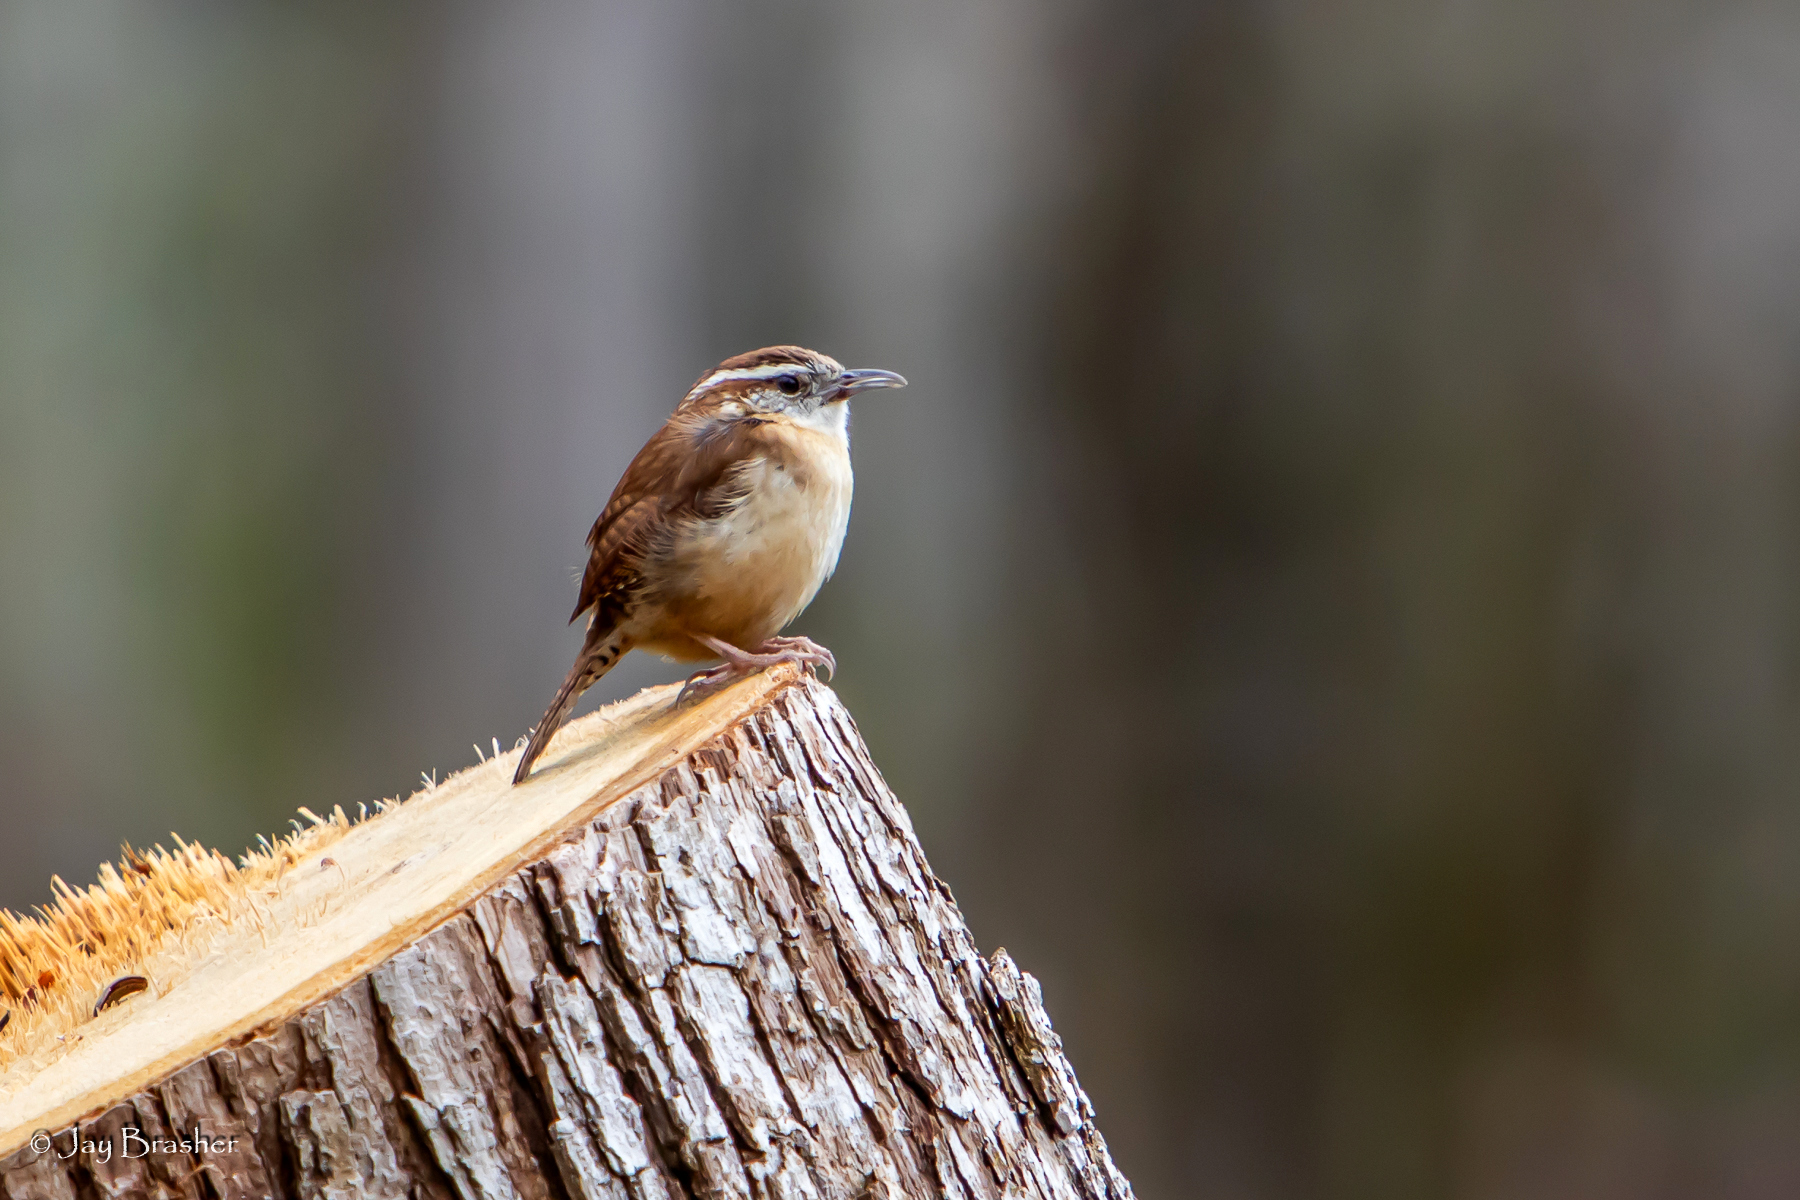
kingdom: Animalia
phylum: Chordata
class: Aves
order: Passeriformes
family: Troglodytidae
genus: Thryothorus
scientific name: Thryothorus ludovicianus
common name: Carolina wren
